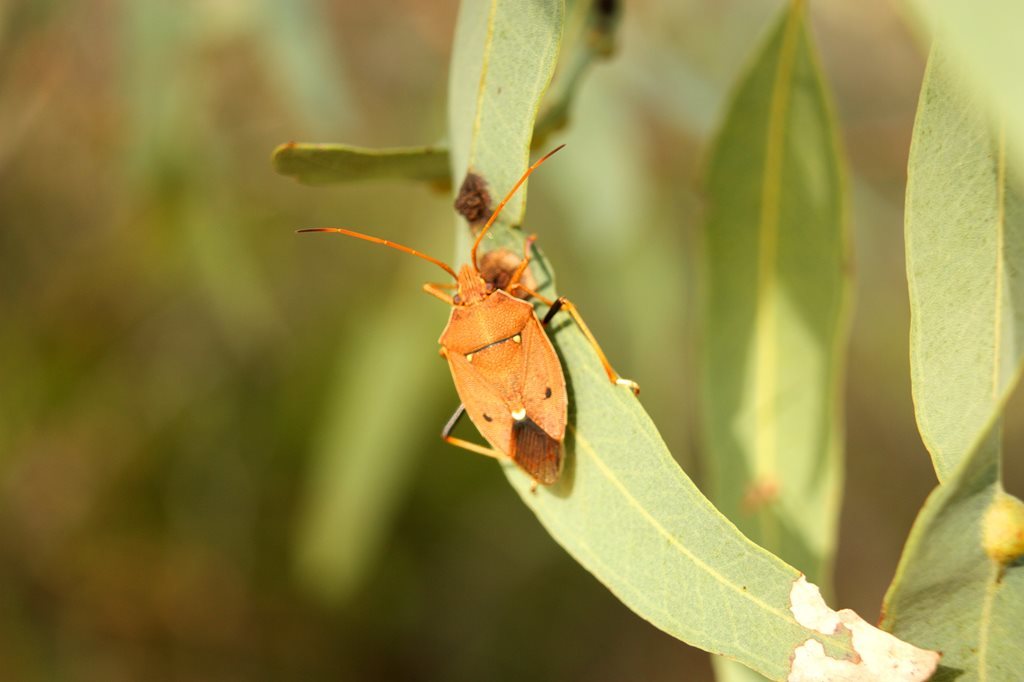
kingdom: Animalia
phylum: Arthropoda
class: Insecta
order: Hemiptera
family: Pentatomidae
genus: Poecilometis
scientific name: Poecilometis
